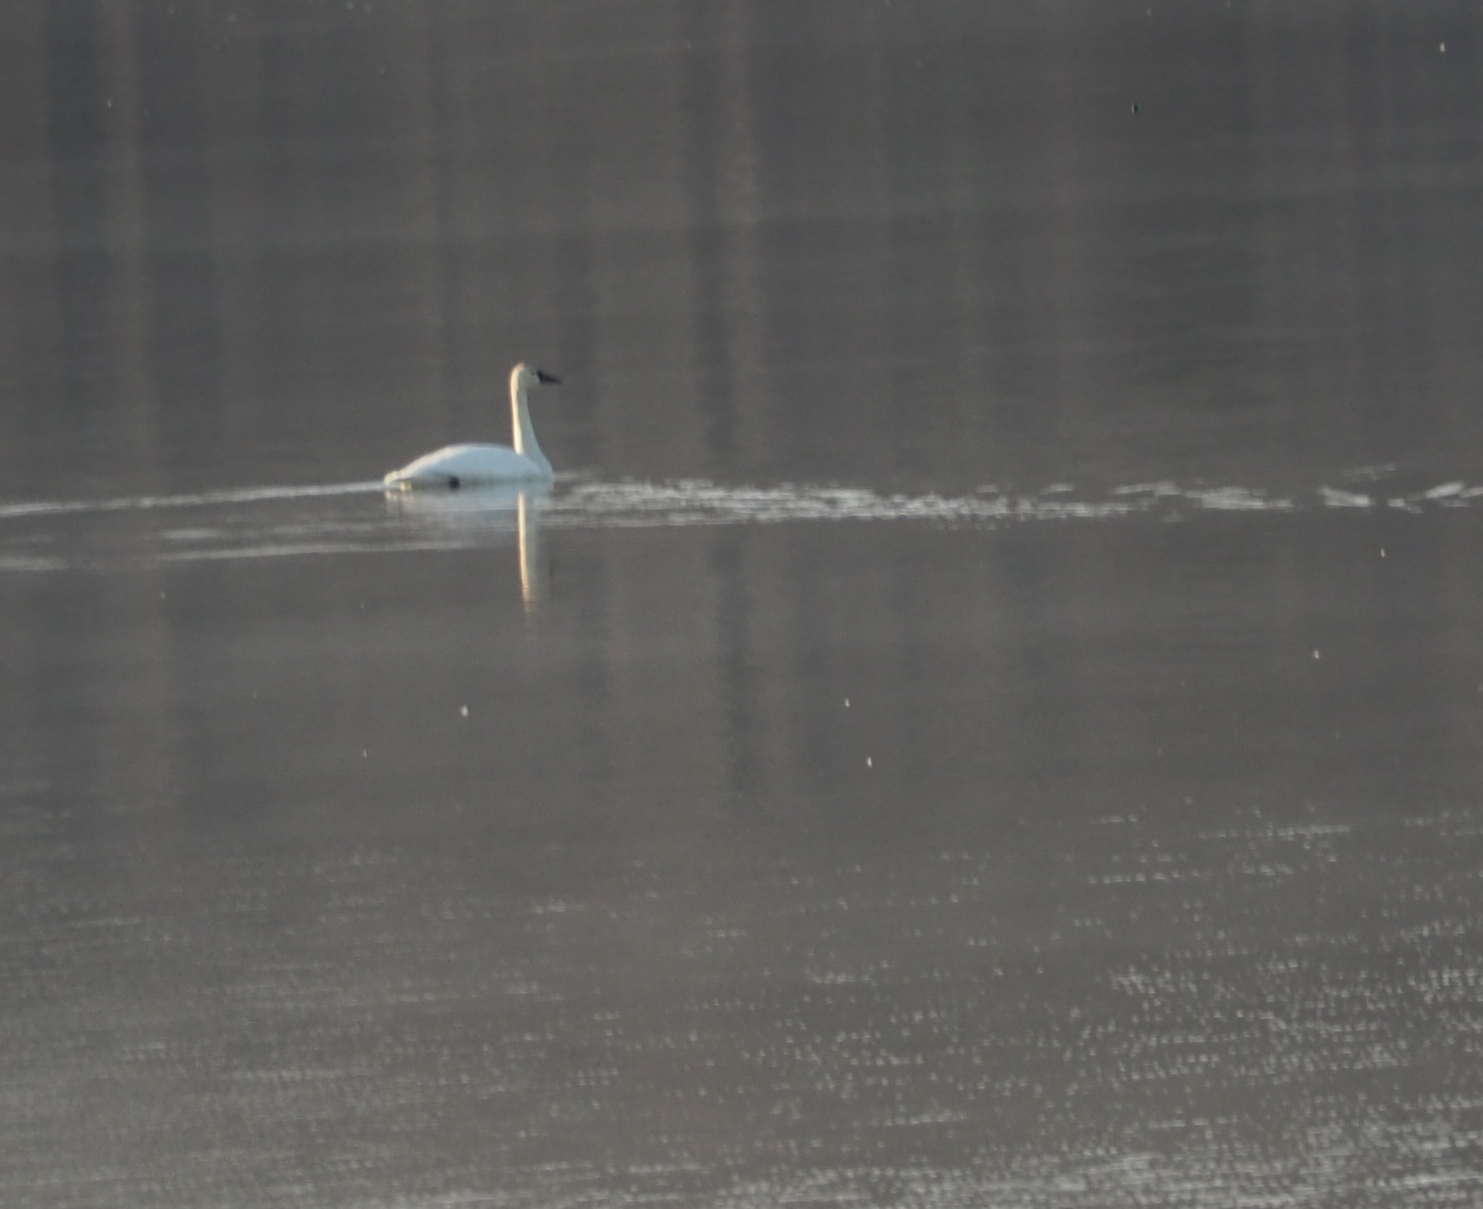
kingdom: Animalia
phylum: Chordata
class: Aves
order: Anseriformes
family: Anatidae
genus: Cygnus
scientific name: Cygnus columbianus
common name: Tundra swan
